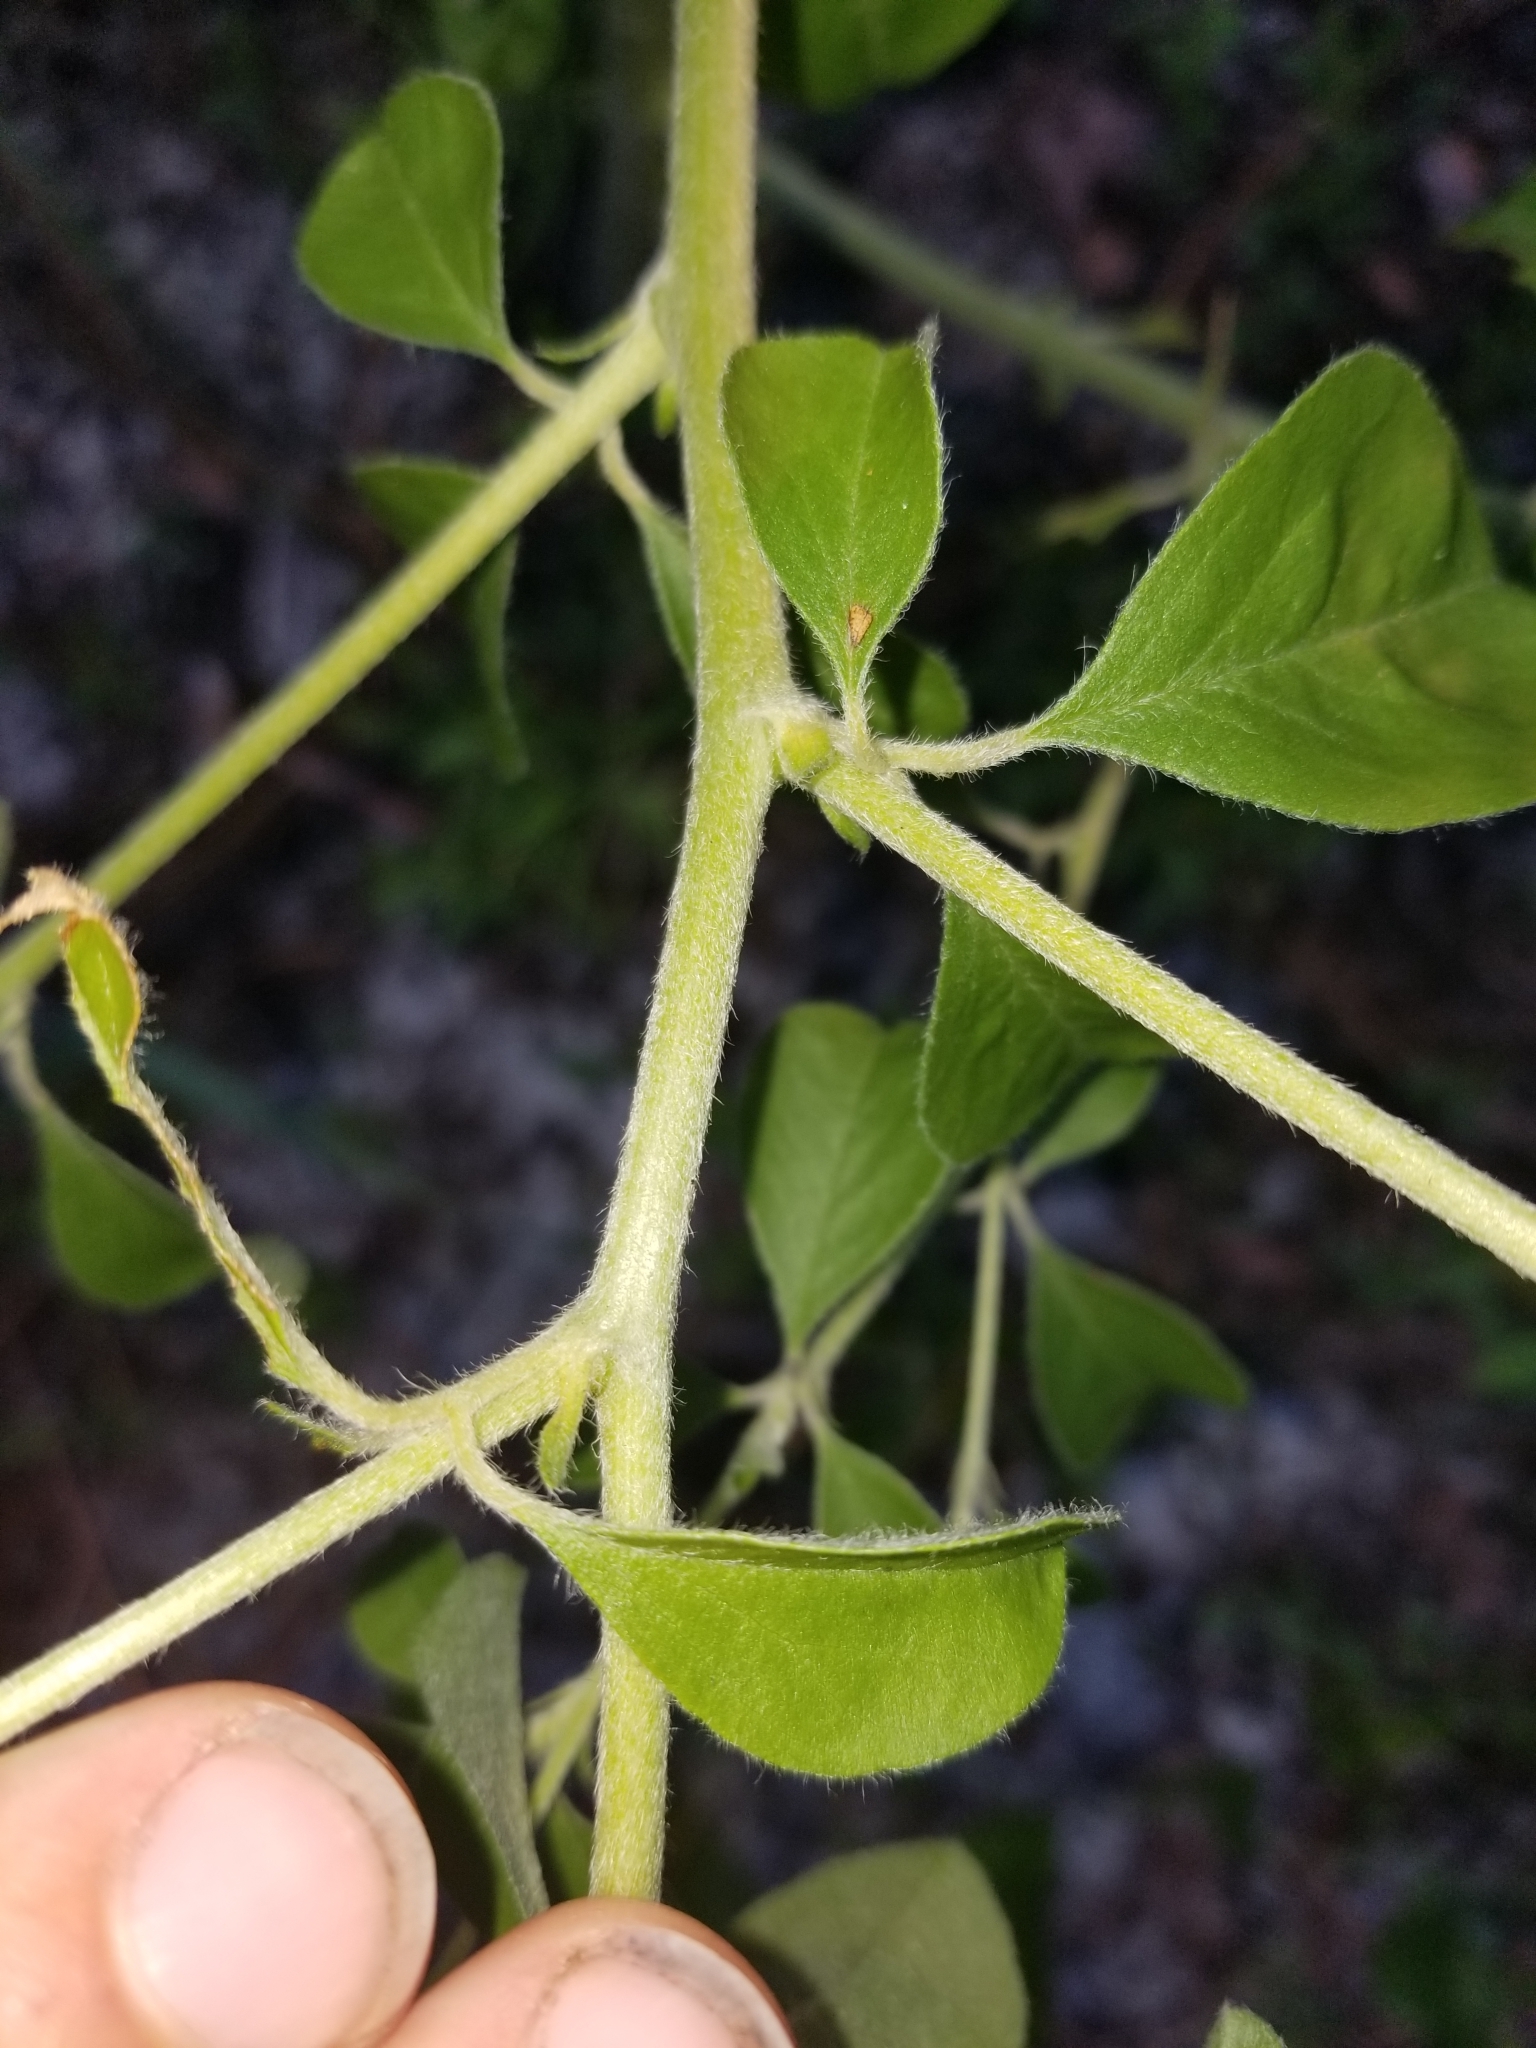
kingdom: Plantae
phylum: Tracheophyta
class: Magnoliopsida
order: Fabales
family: Fabaceae
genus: Pediomelum
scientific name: Pediomelum canescens
